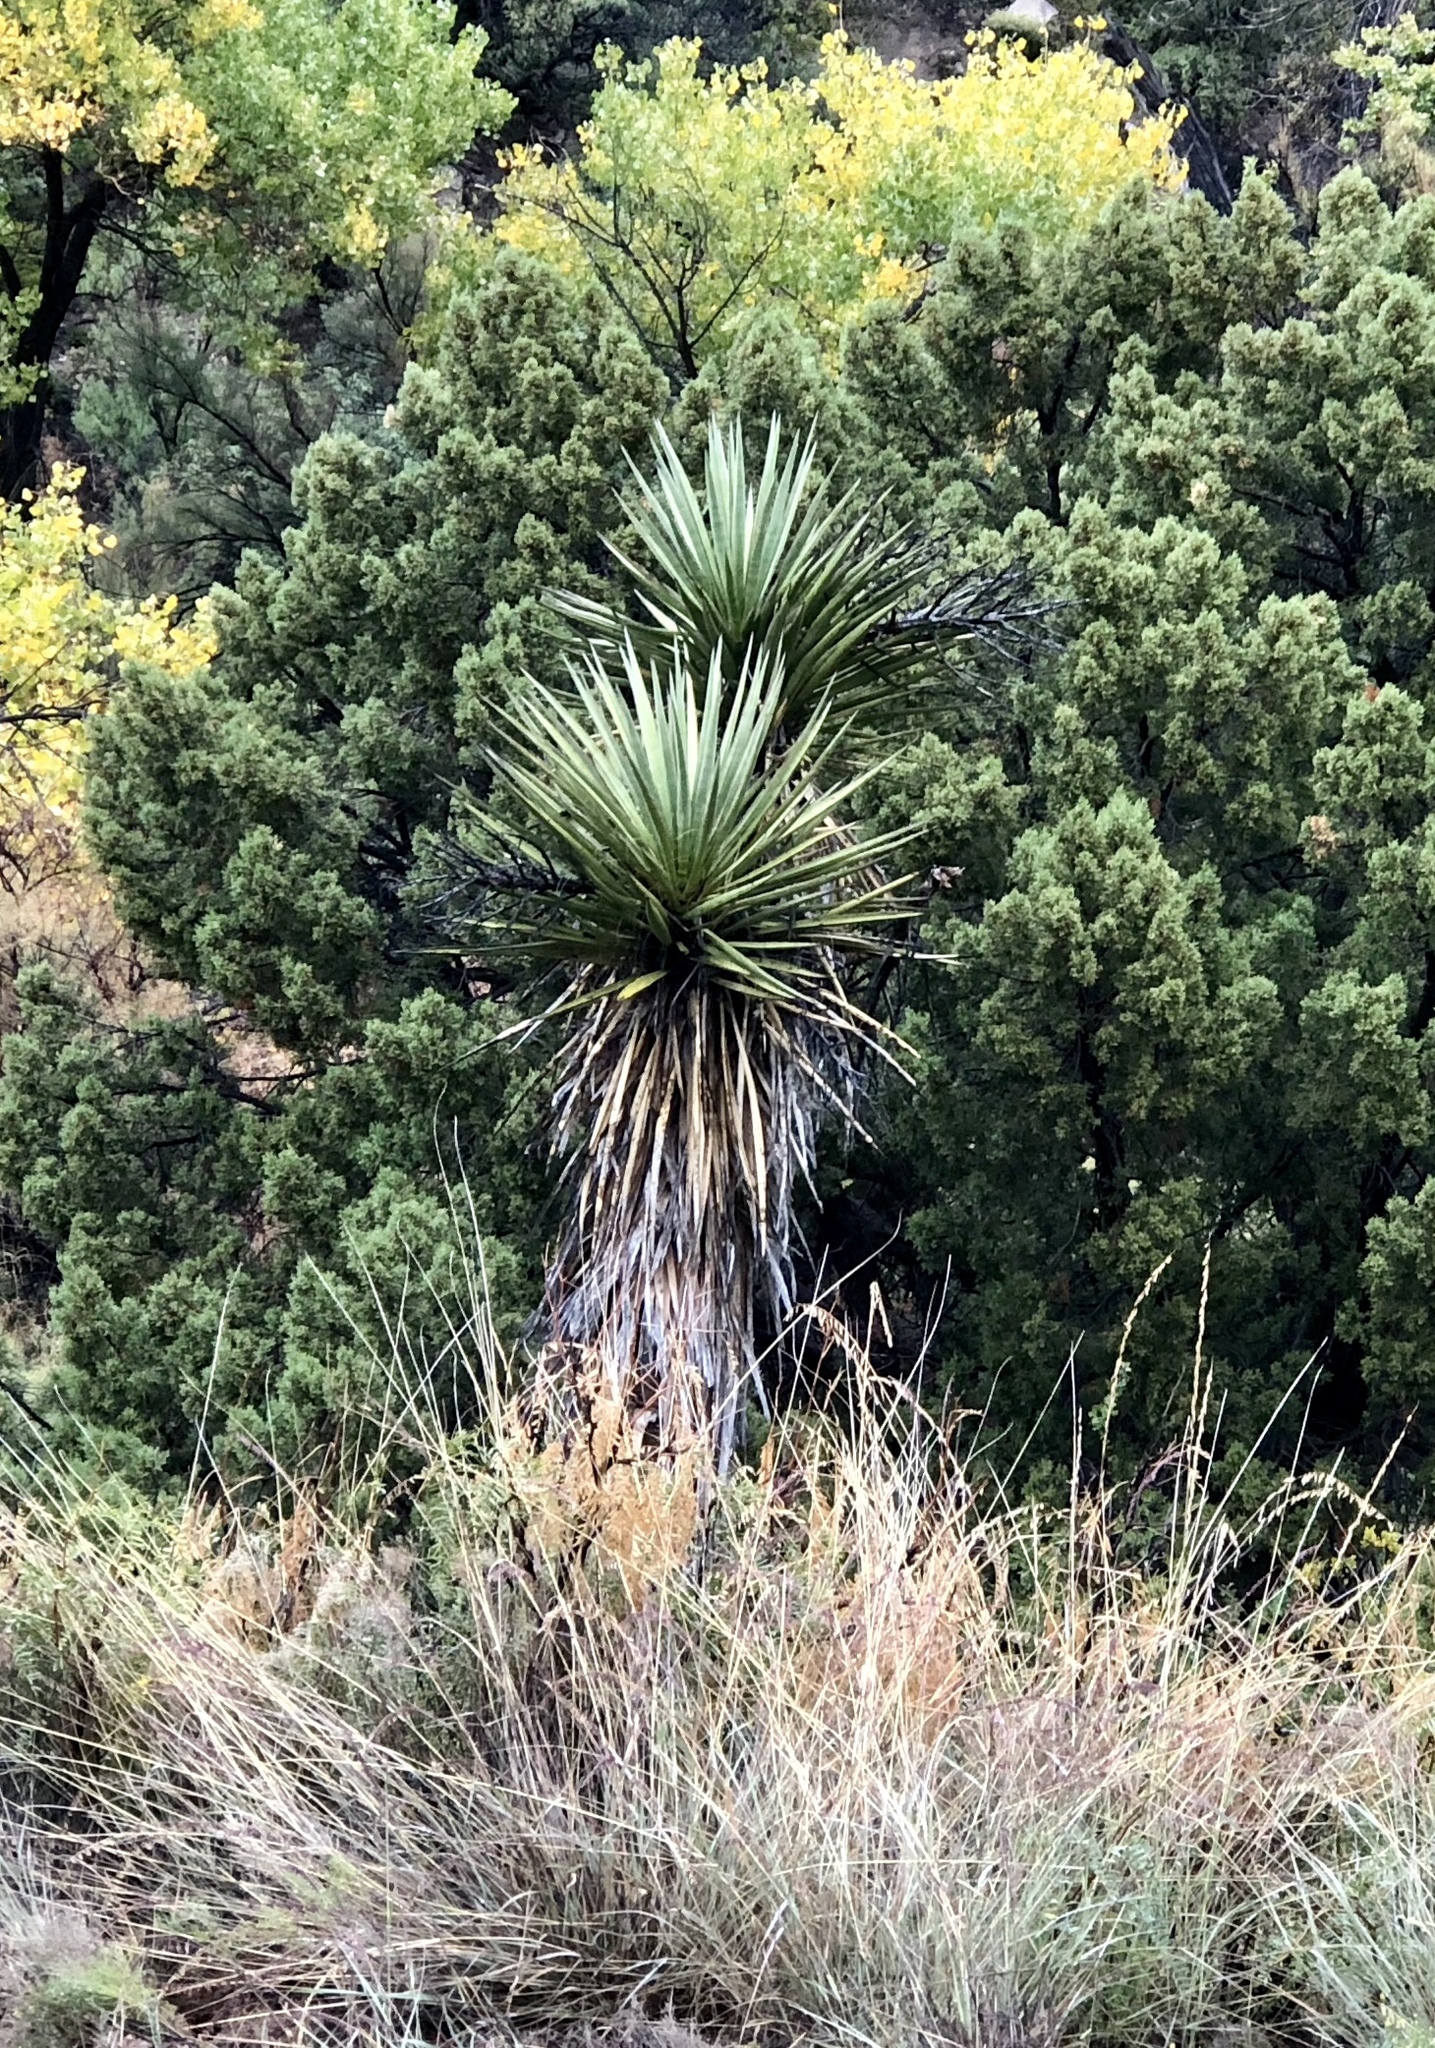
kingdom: Plantae
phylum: Tracheophyta
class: Liliopsida
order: Asparagales
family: Asparagaceae
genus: Yucca
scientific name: Yucca treculiana
